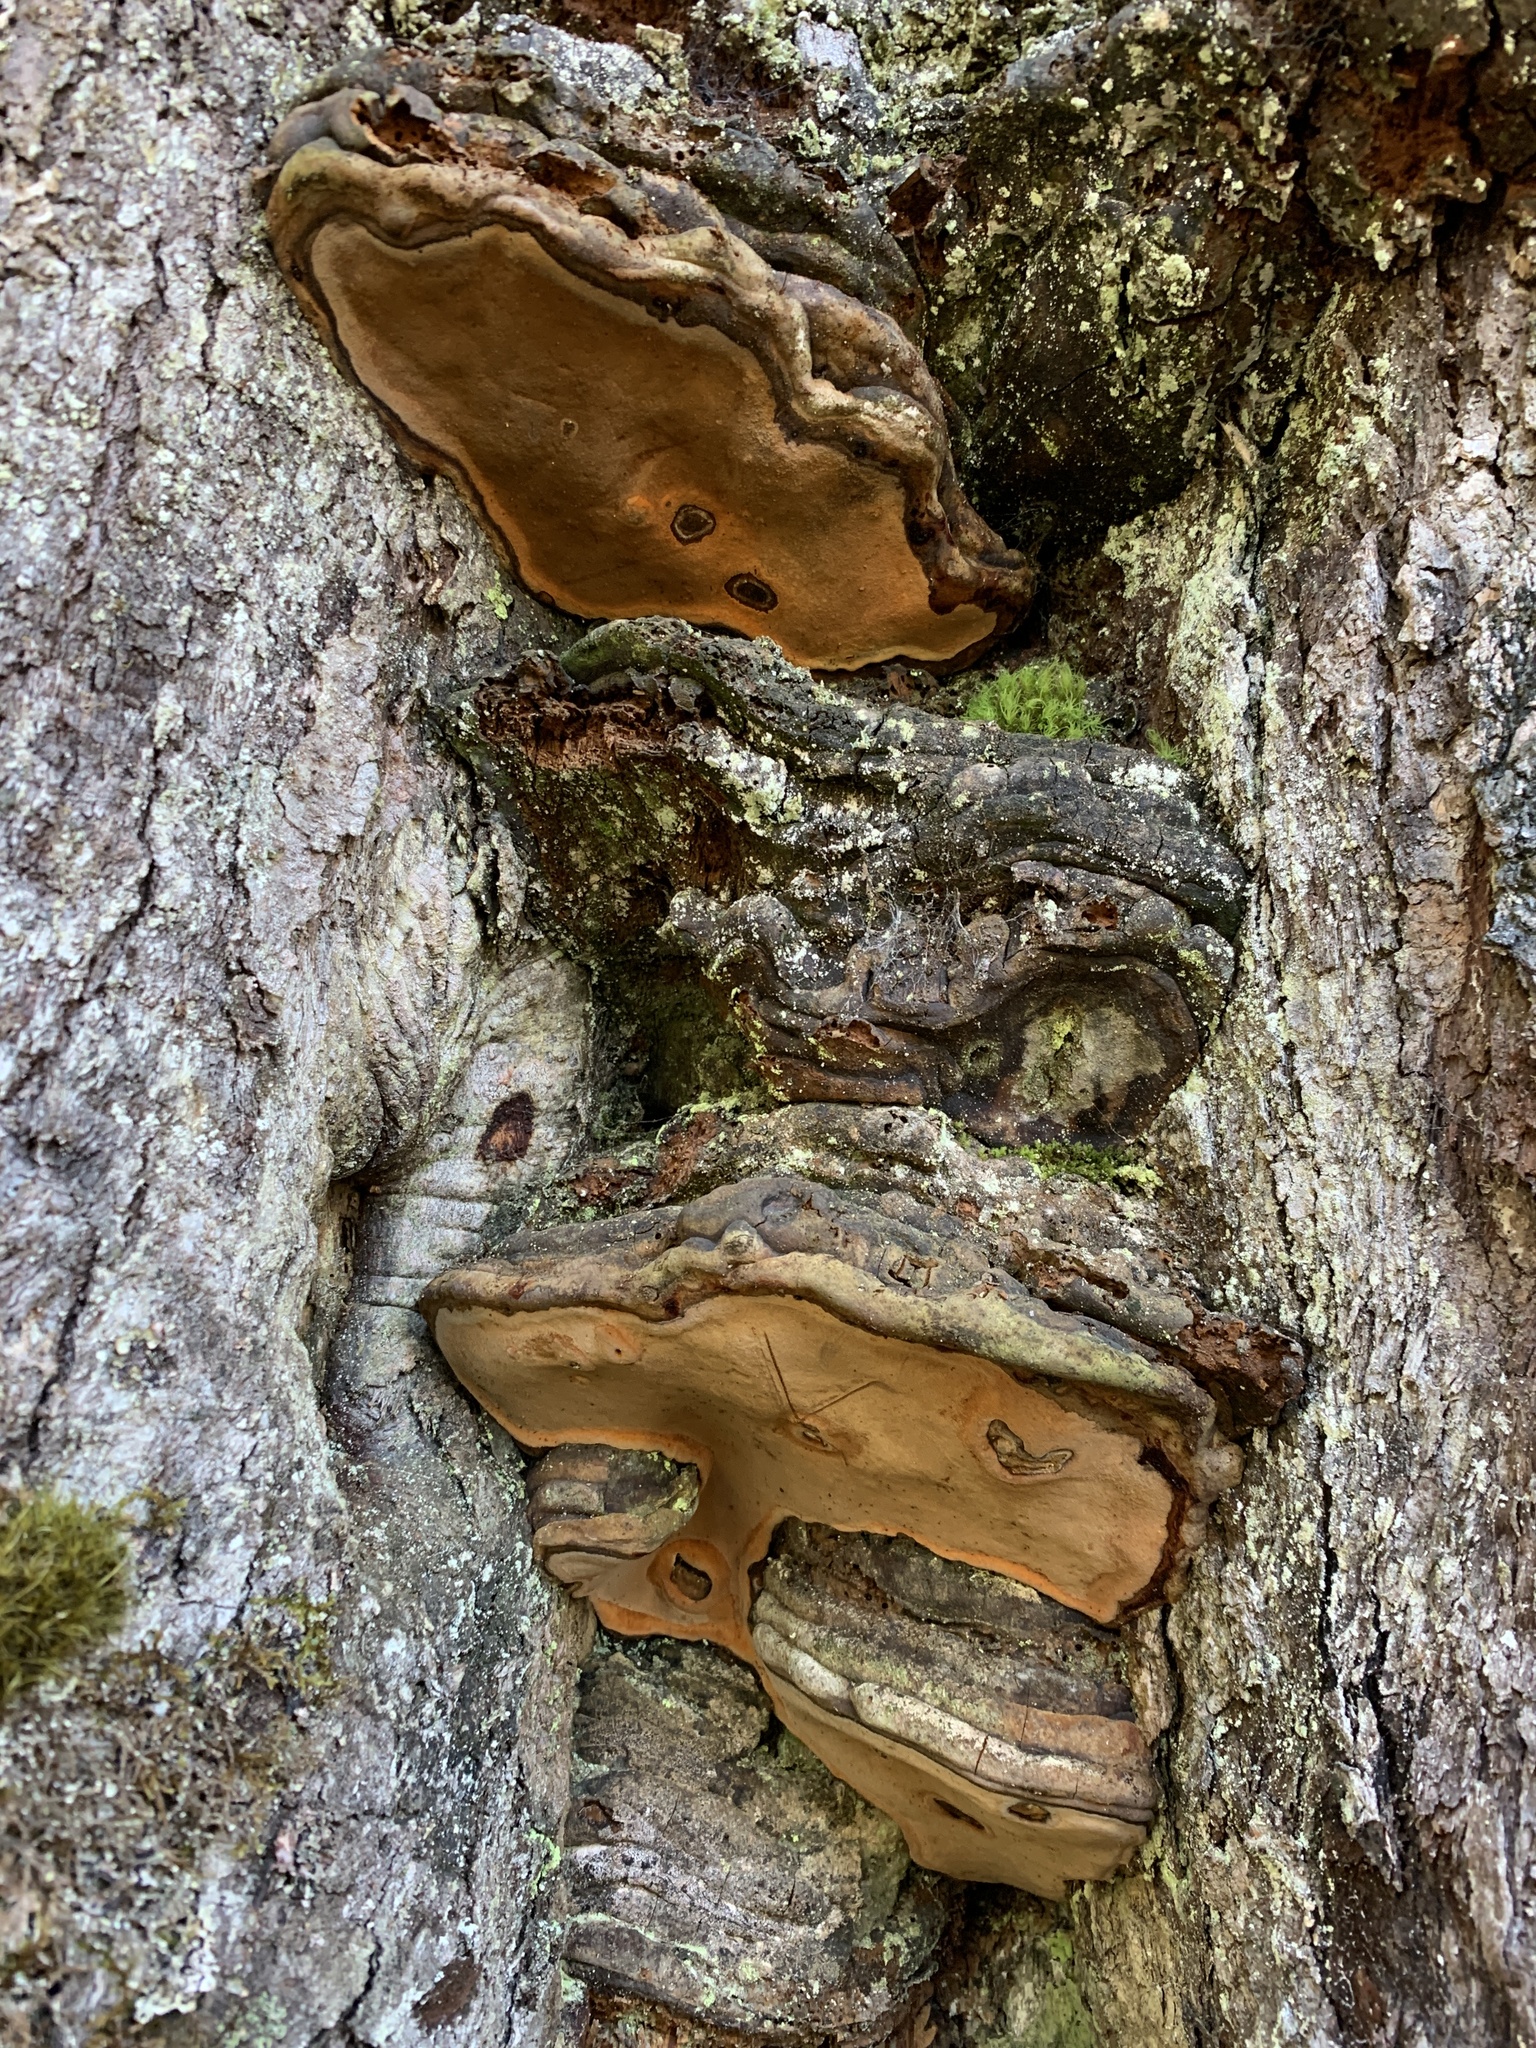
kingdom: Fungi
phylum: Basidiomycota
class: Agaricomycetes
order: Polyporales
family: Polyporaceae
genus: Ganoderma
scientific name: Ganoderma australe
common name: Southern bracket
